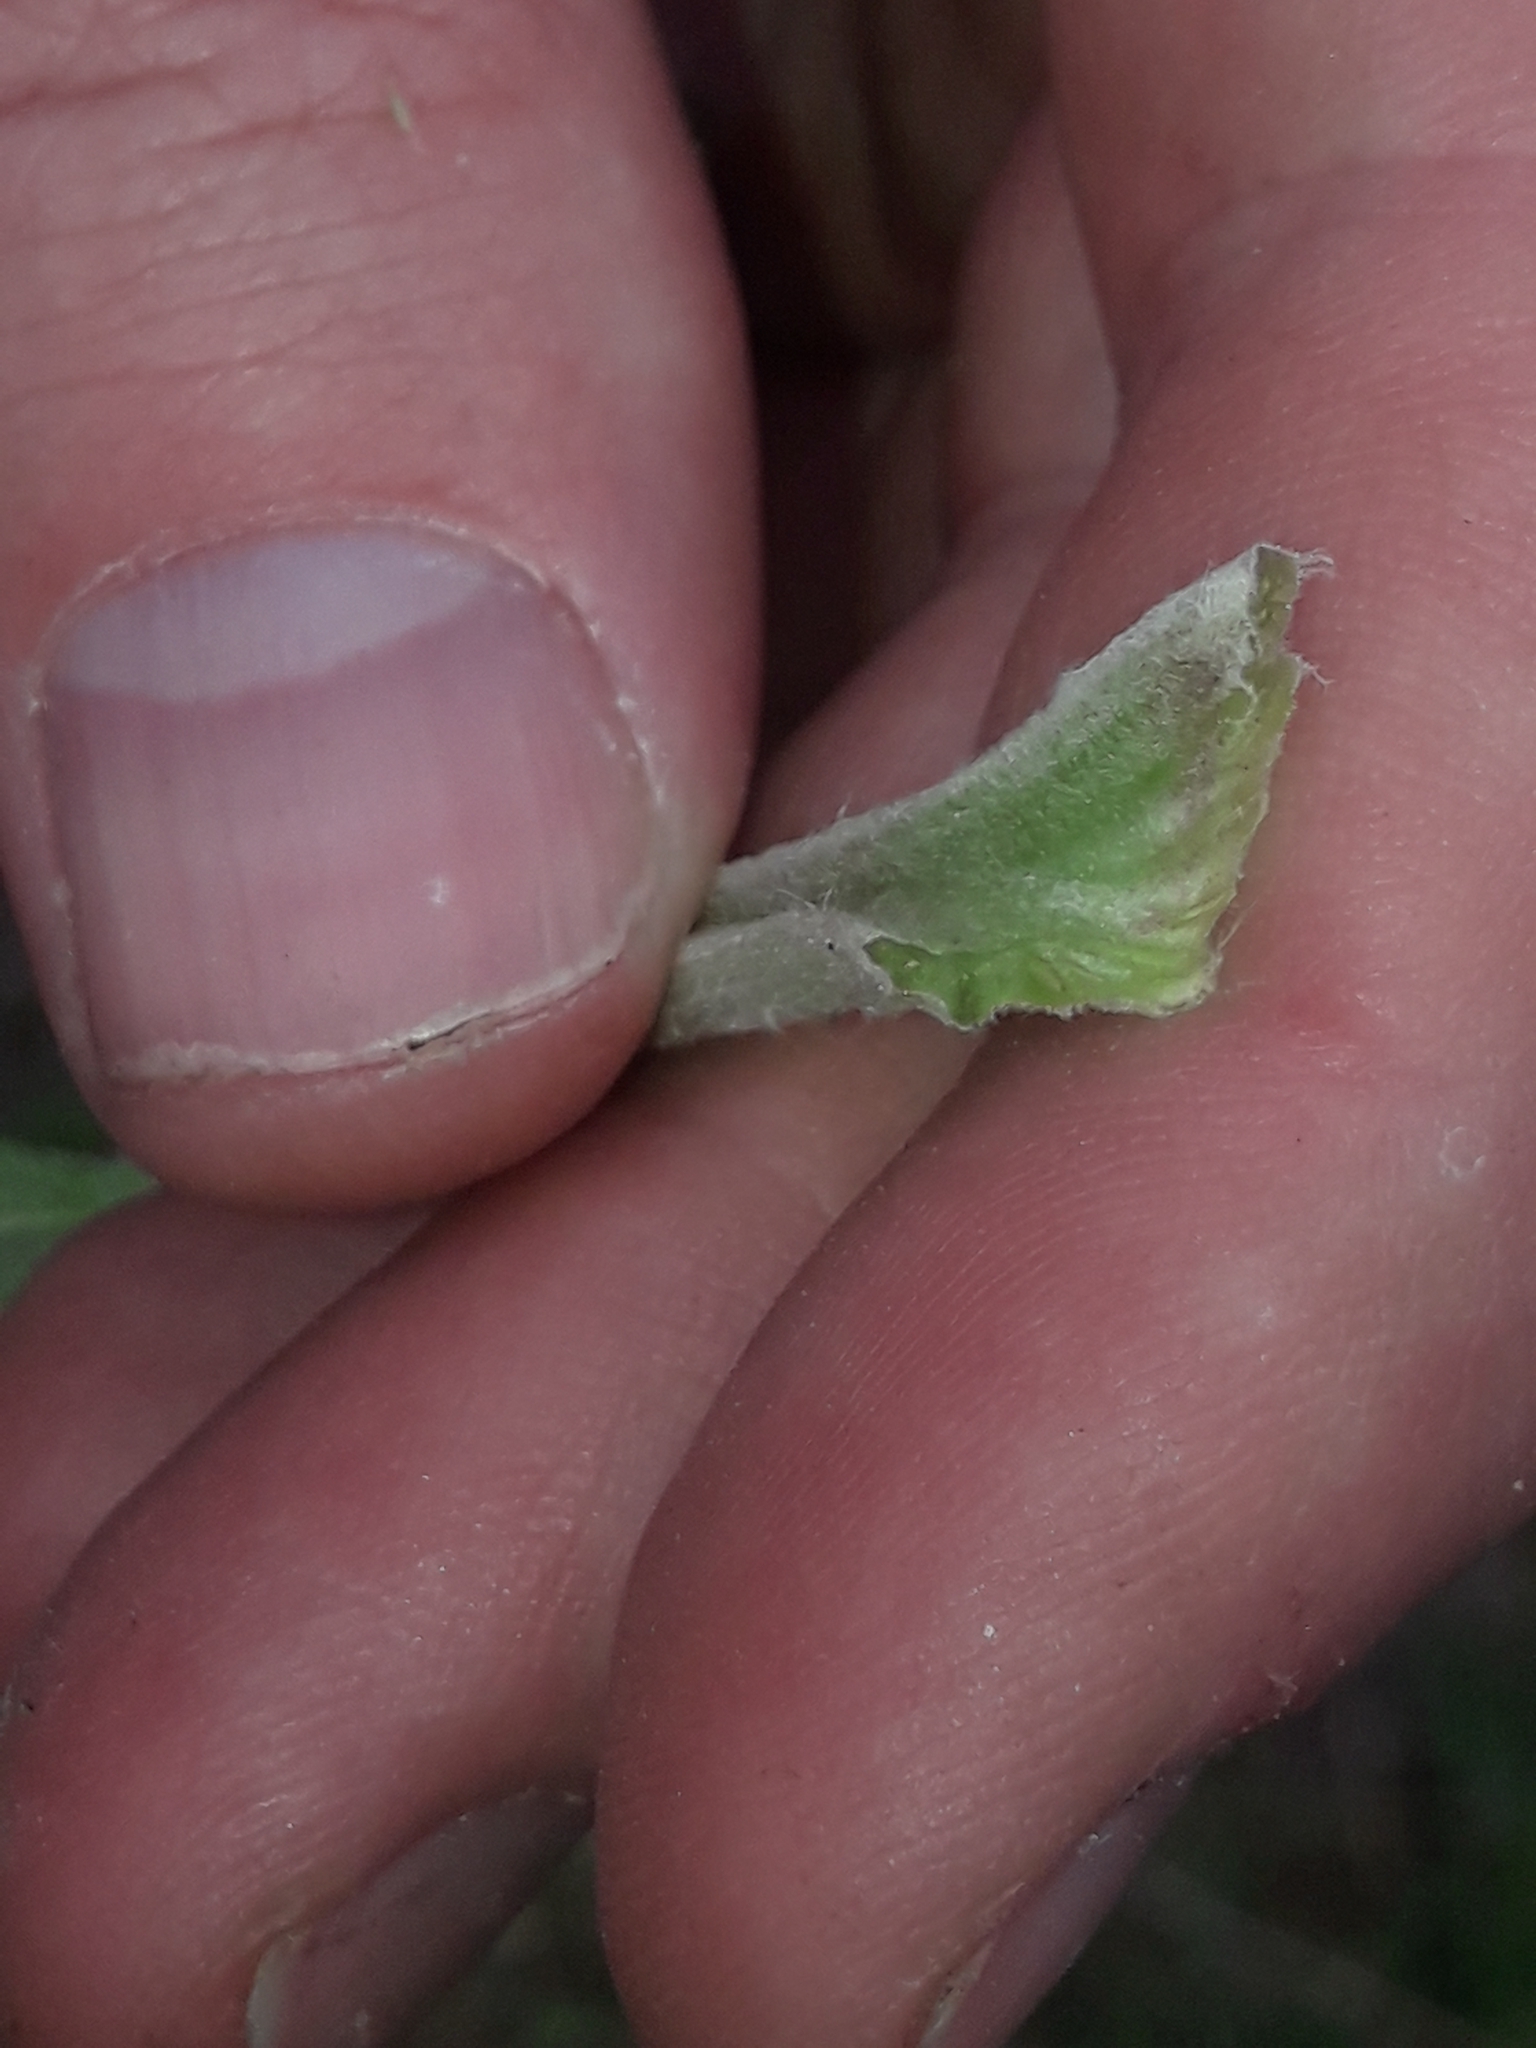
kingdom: Plantae
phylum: Tracheophyta
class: Magnoliopsida
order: Asterales
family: Asteraceae
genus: Arctium
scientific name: Arctium minus
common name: Lesser burdock
